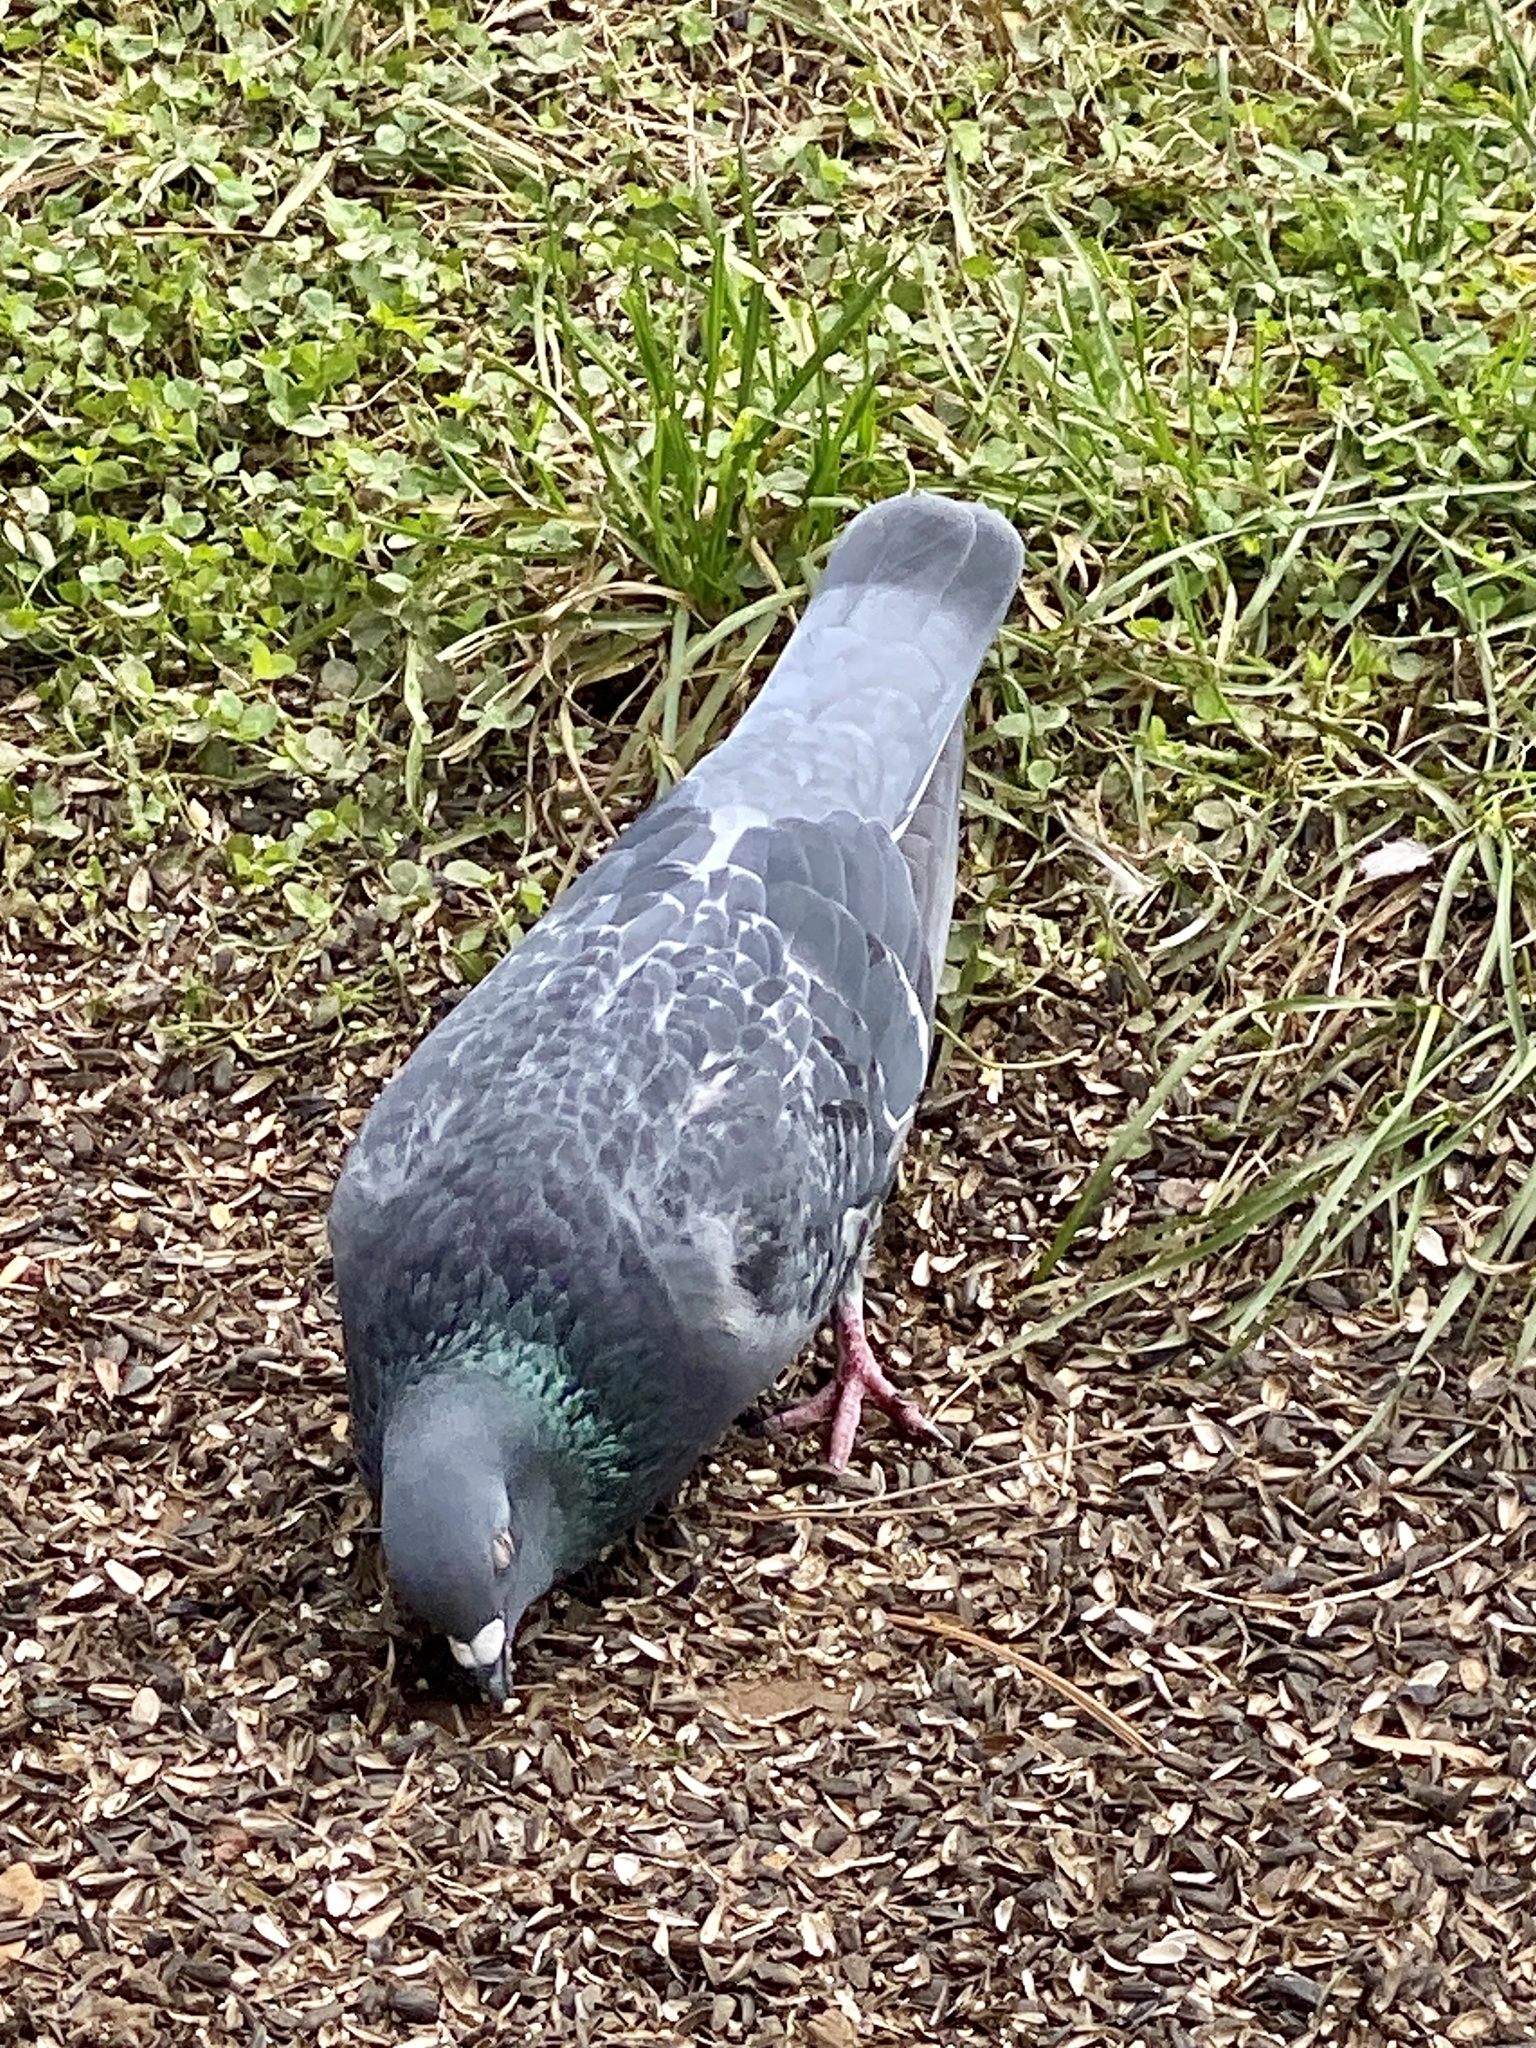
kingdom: Animalia
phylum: Chordata
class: Aves
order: Columbiformes
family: Columbidae
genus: Columba
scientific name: Columba livia
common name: Rock pigeon
